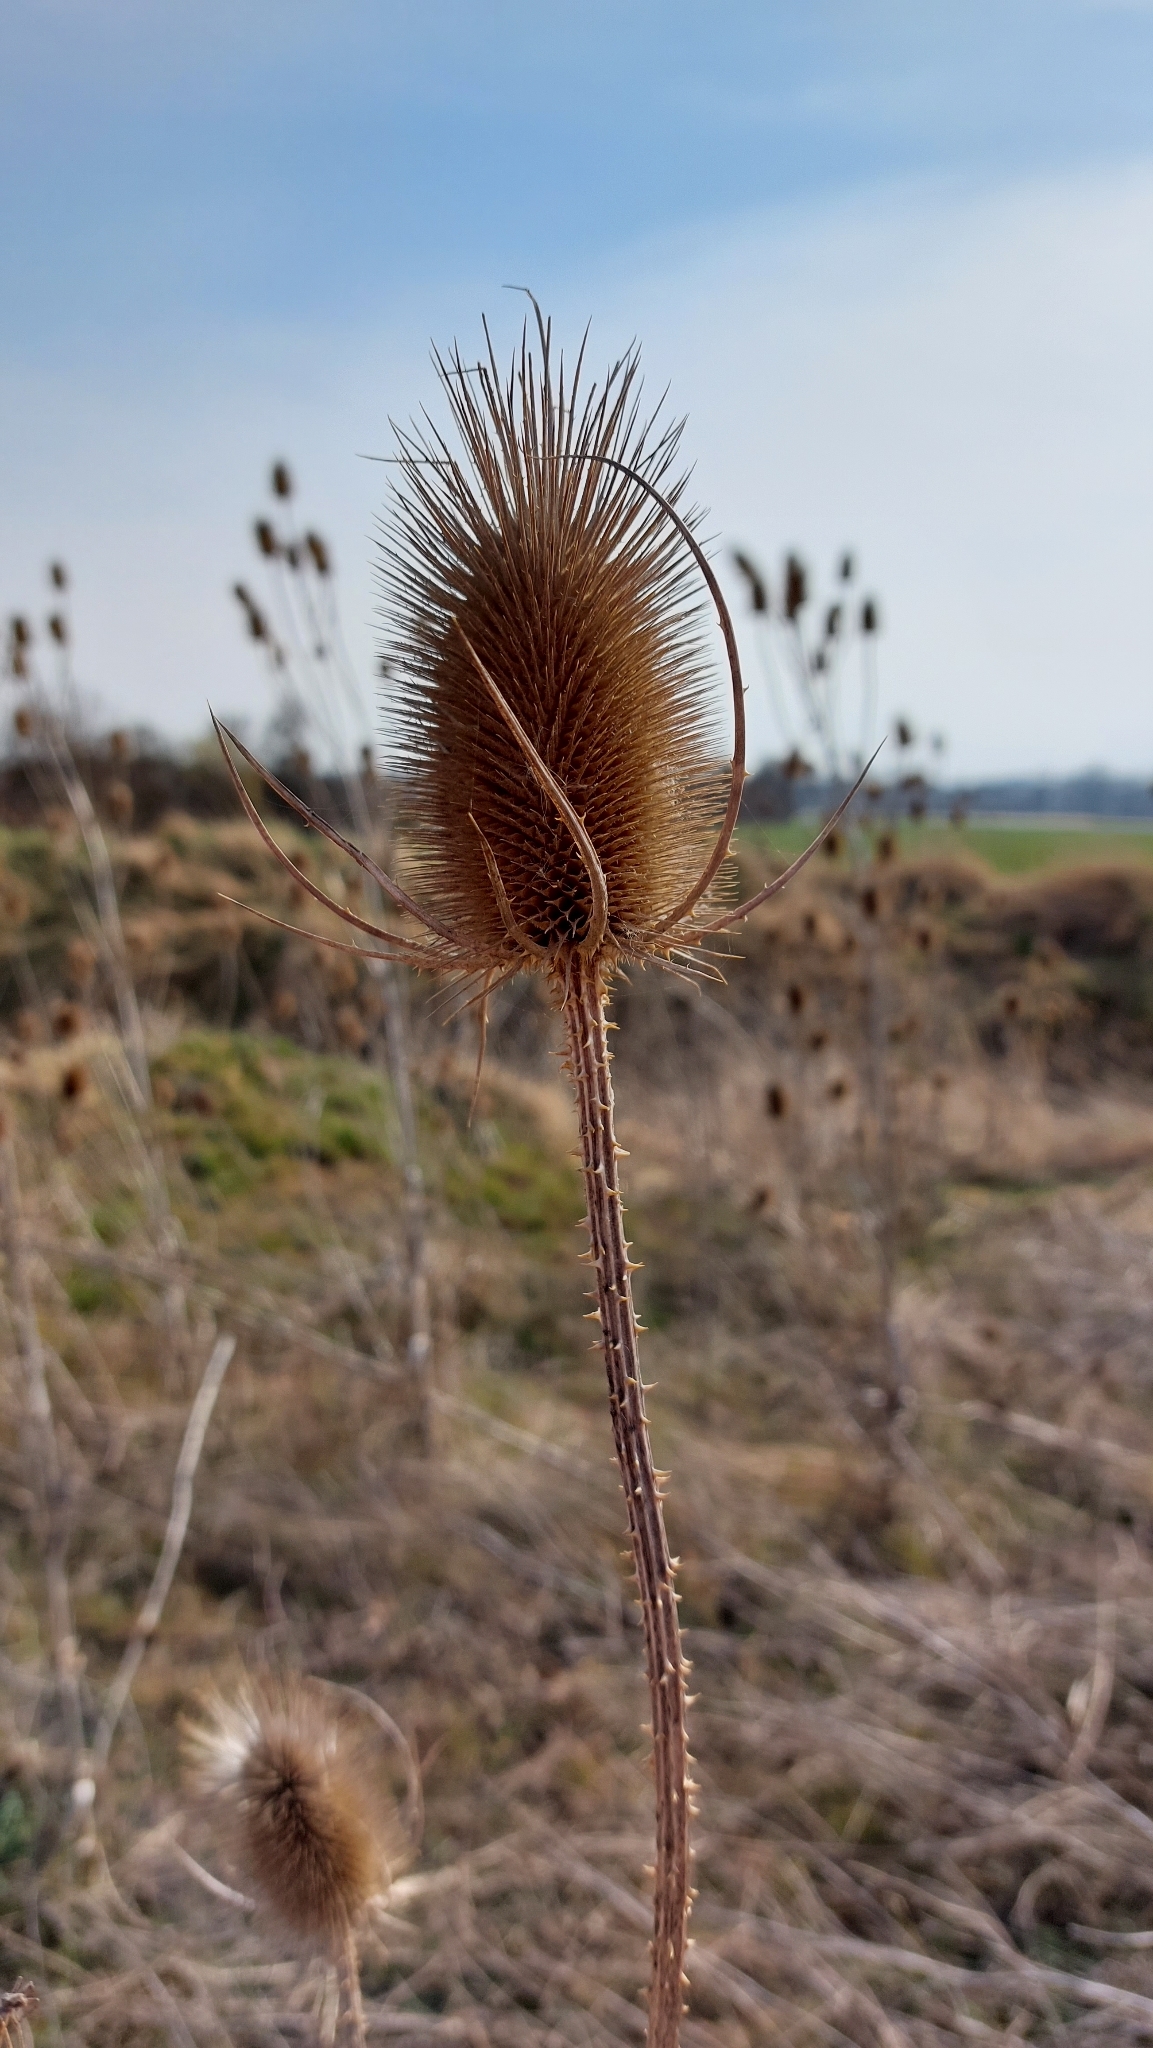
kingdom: Plantae
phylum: Tracheophyta
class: Magnoliopsida
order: Dipsacales
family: Caprifoliaceae
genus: Dipsacus
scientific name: Dipsacus fullonum
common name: Teasel
